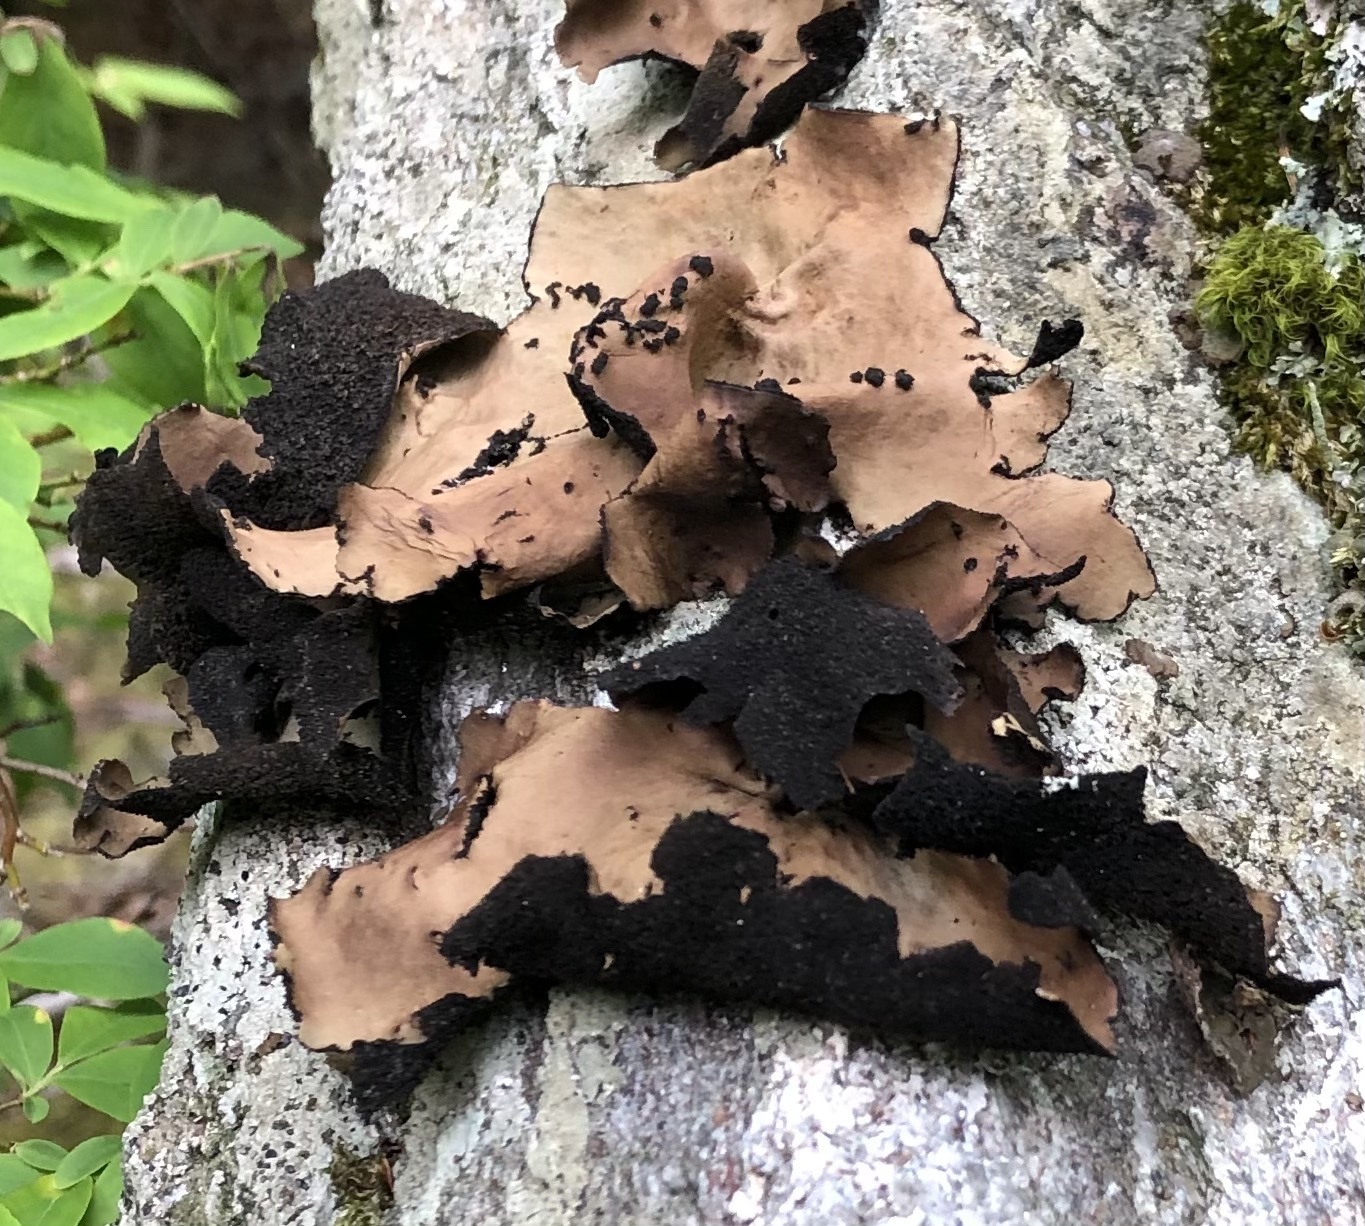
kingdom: Fungi
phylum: Ascomycota
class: Lecanoromycetes
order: Umbilicariales
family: Umbilicariaceae
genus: Umbilicaria
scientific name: Umbilicaria mammulata
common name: Smooth rock tripe
